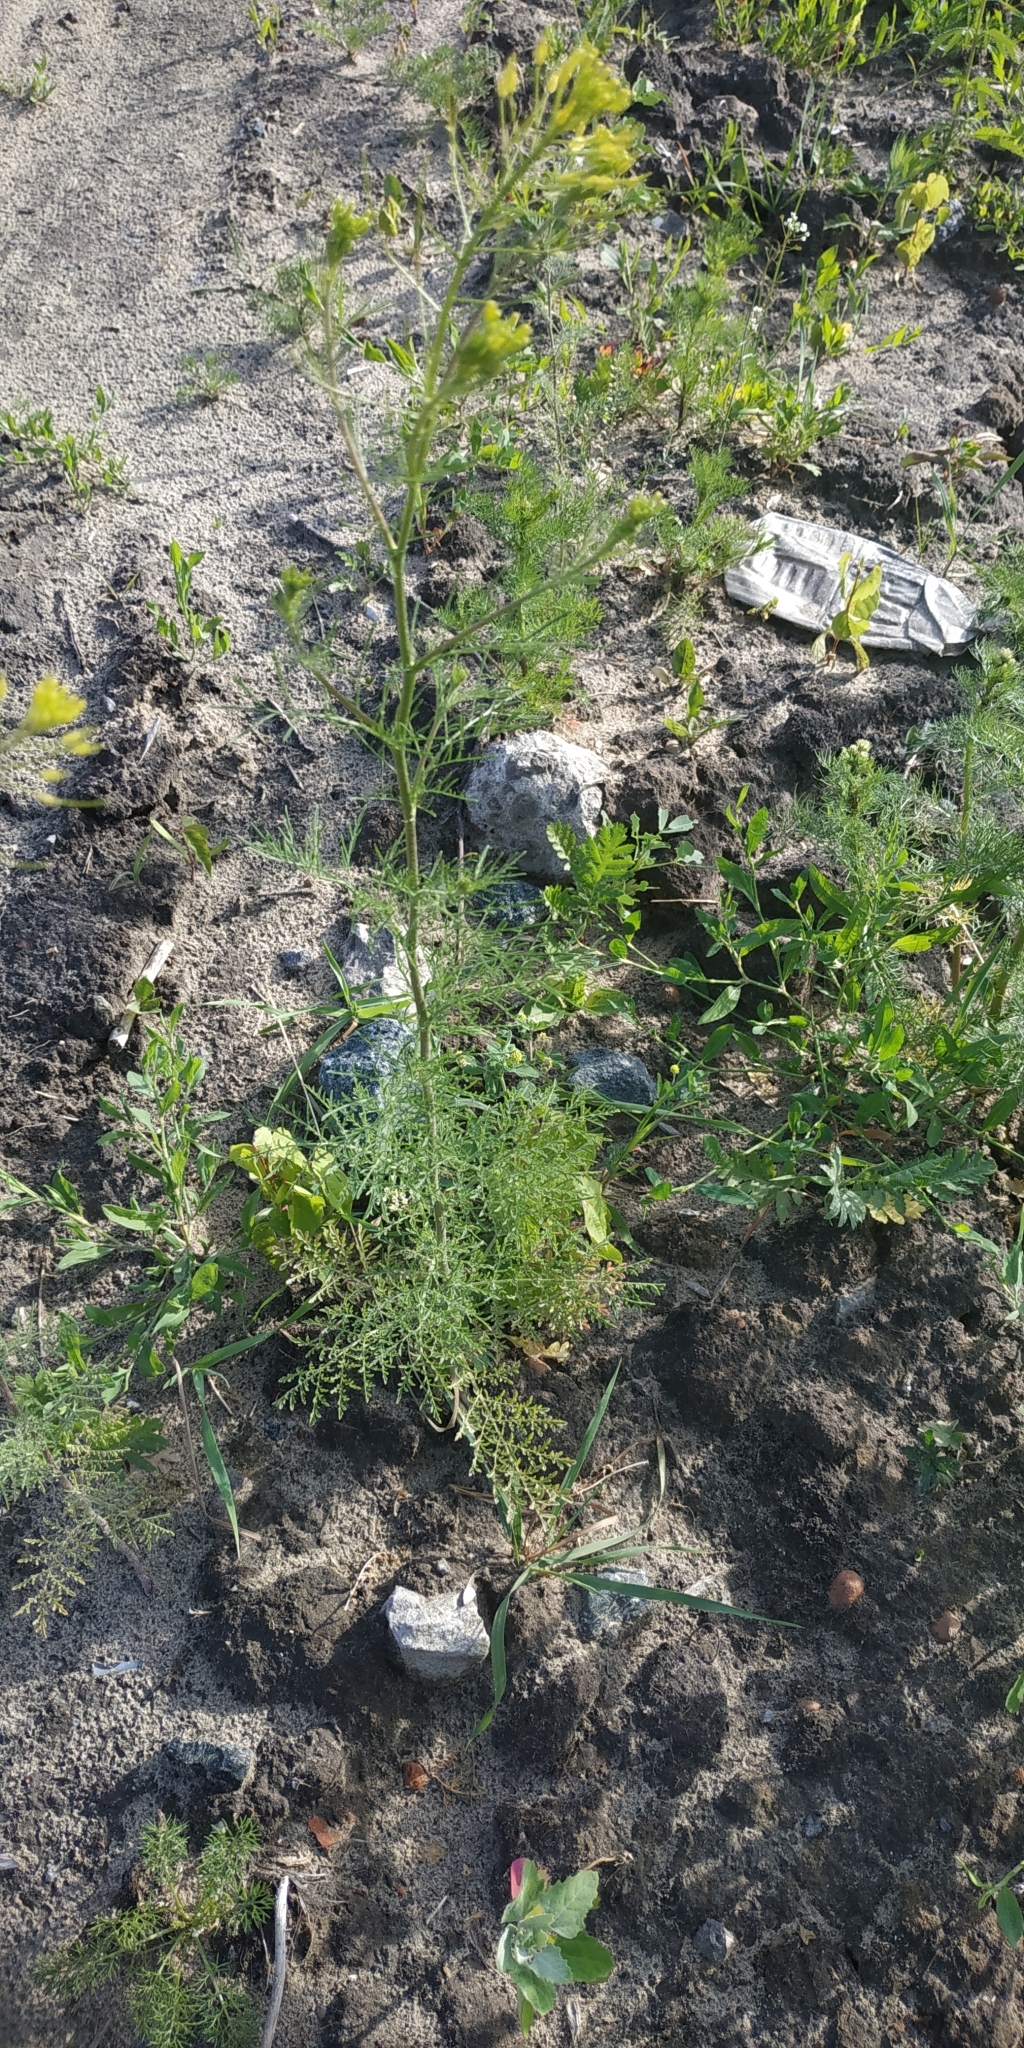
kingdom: Plantae
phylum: Tracheophyta
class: Magnoliopsida
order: Brassicales
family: Brassicaceae
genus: Descurainia
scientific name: Descurainia sophia
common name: Flixweed
